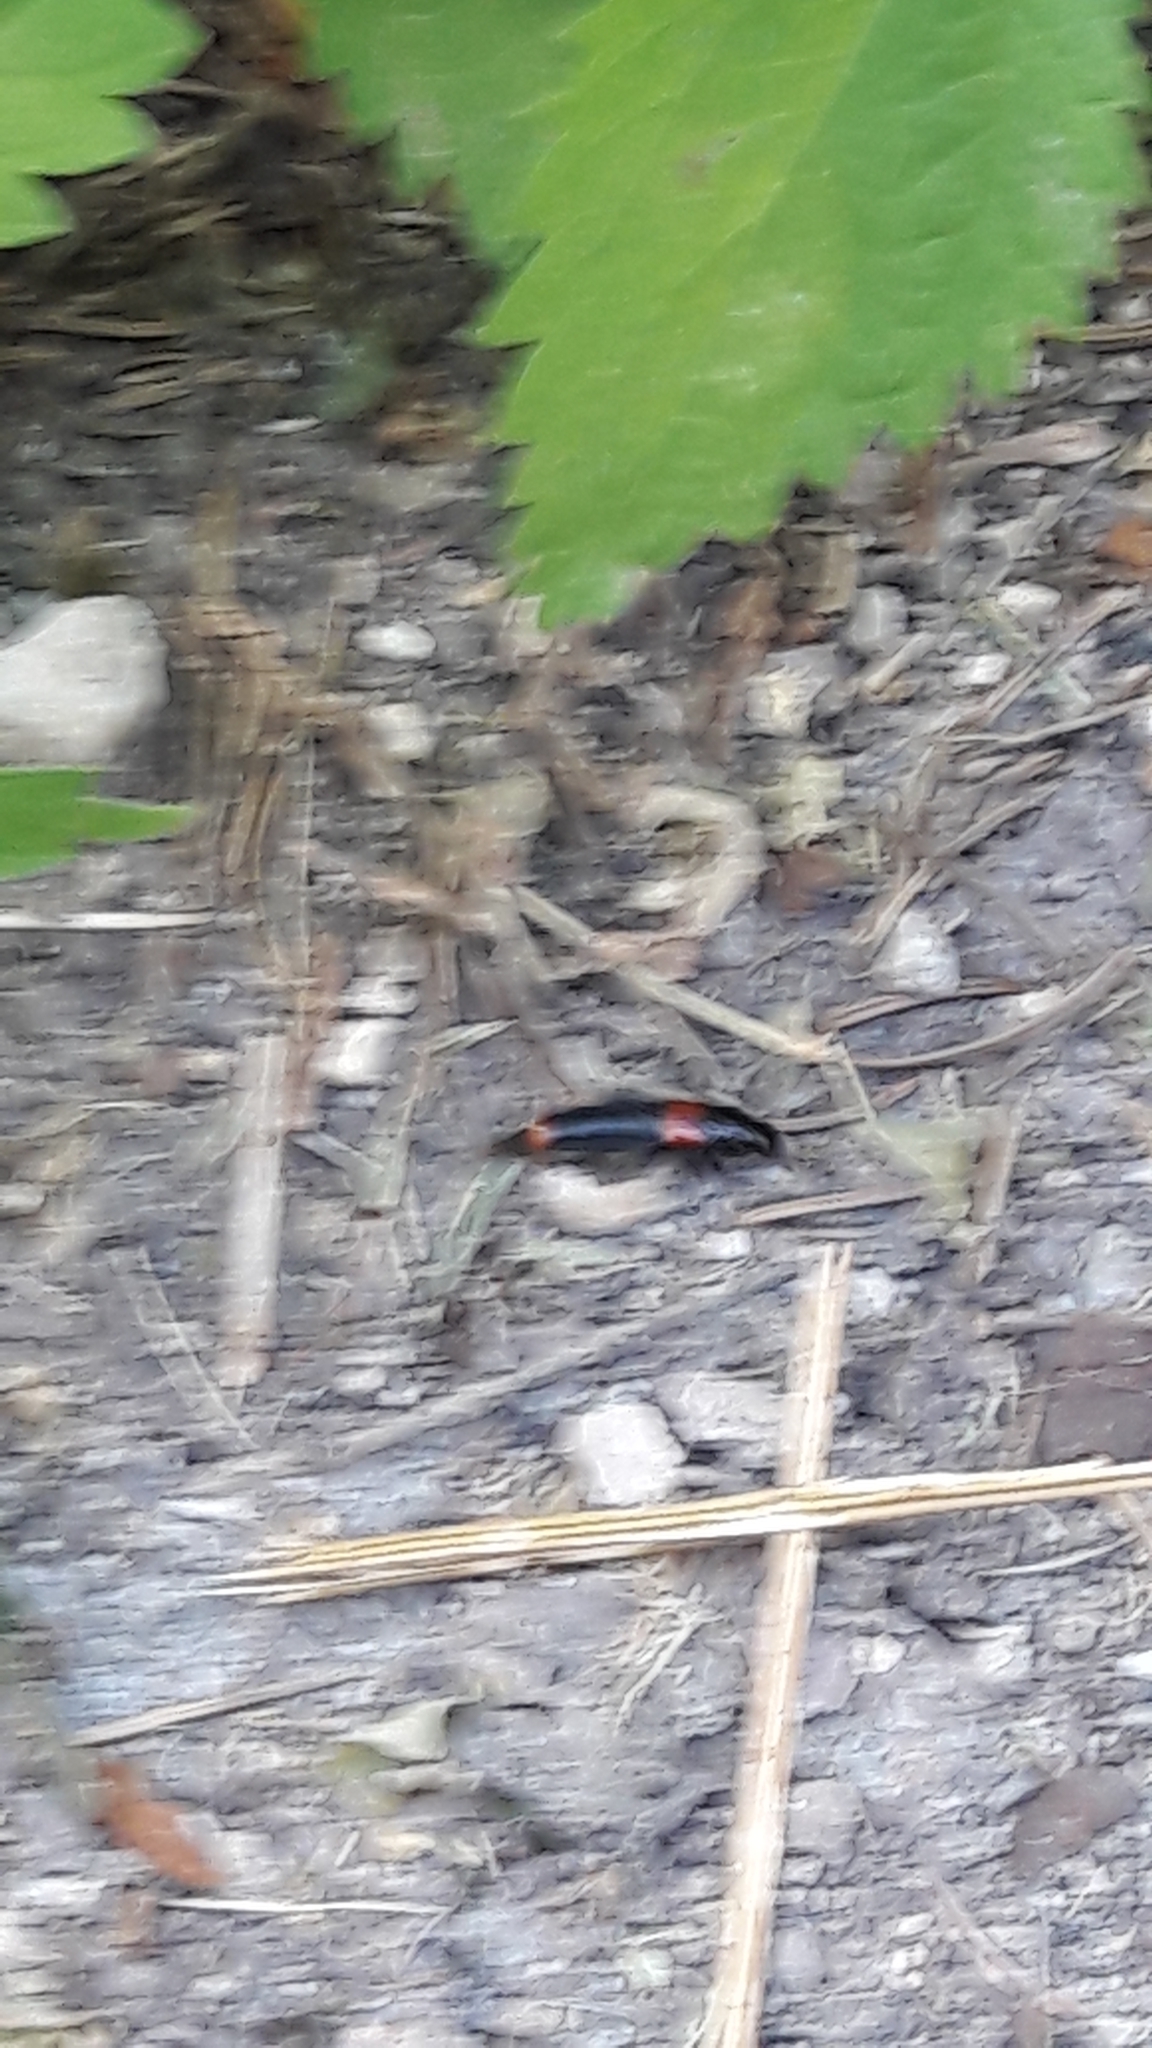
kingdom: Animalia
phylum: Arthropoda
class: Insecta
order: Coleoptera
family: Staphylinidae
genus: Astrapaeus
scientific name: Astrapaeus ulmi
